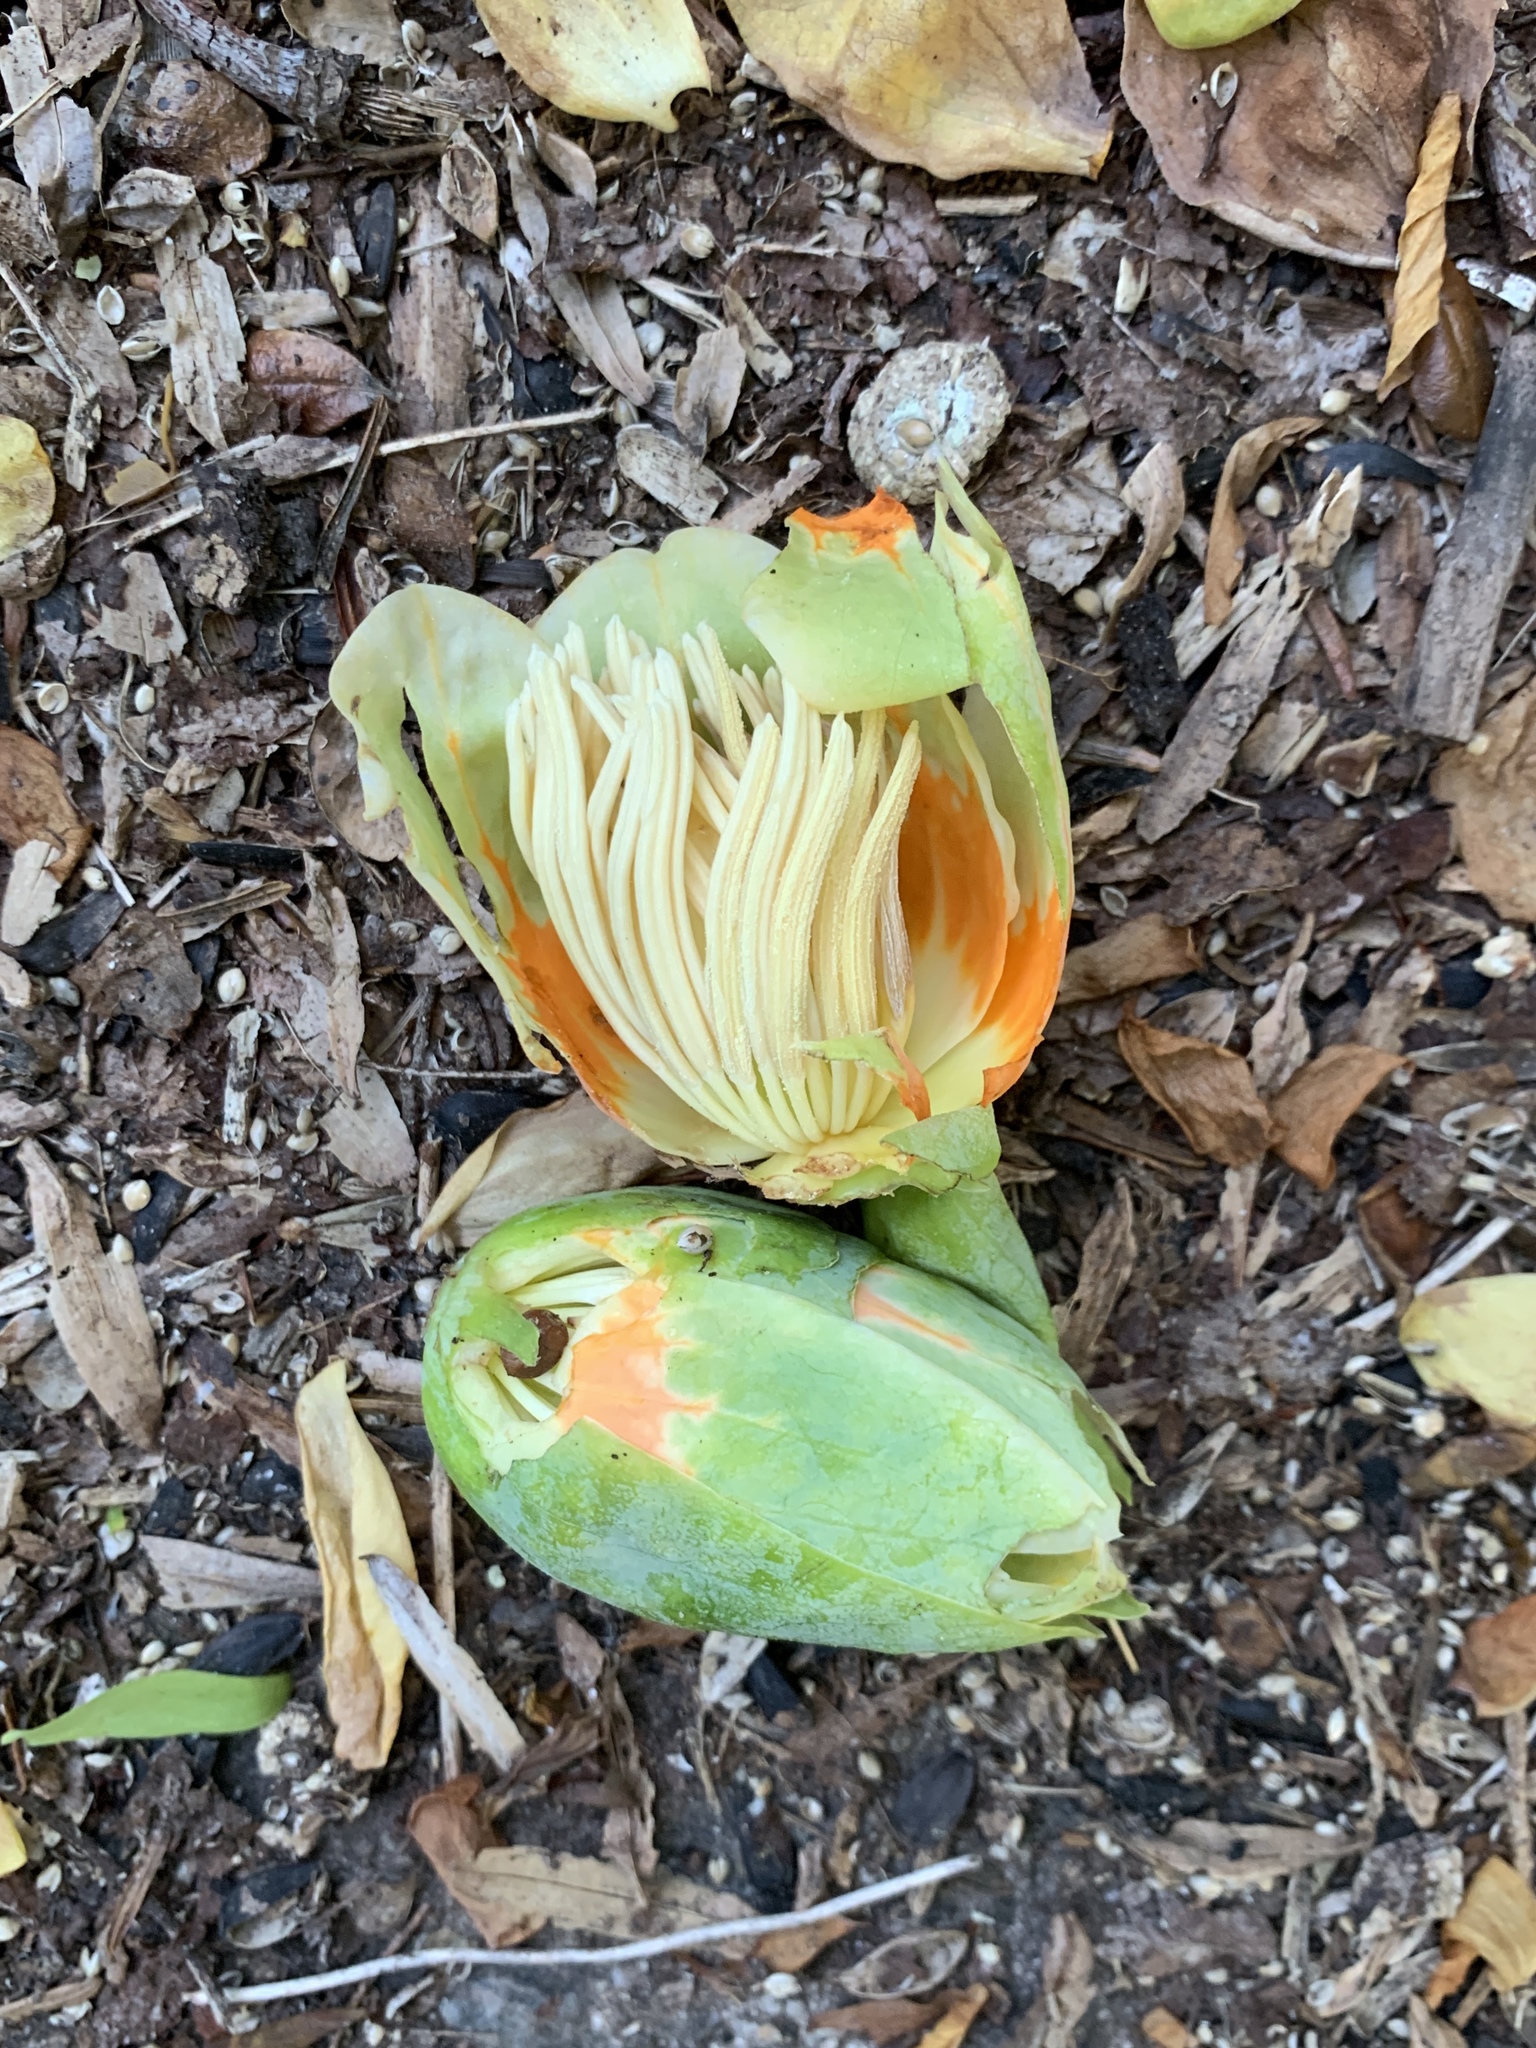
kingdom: Plantae
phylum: Tracheophyta
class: Magnoliopsida
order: Magnoliales
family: Magnoliaceae
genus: Liriodendron
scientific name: Liriodendron tulipifera
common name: Tulip tree
